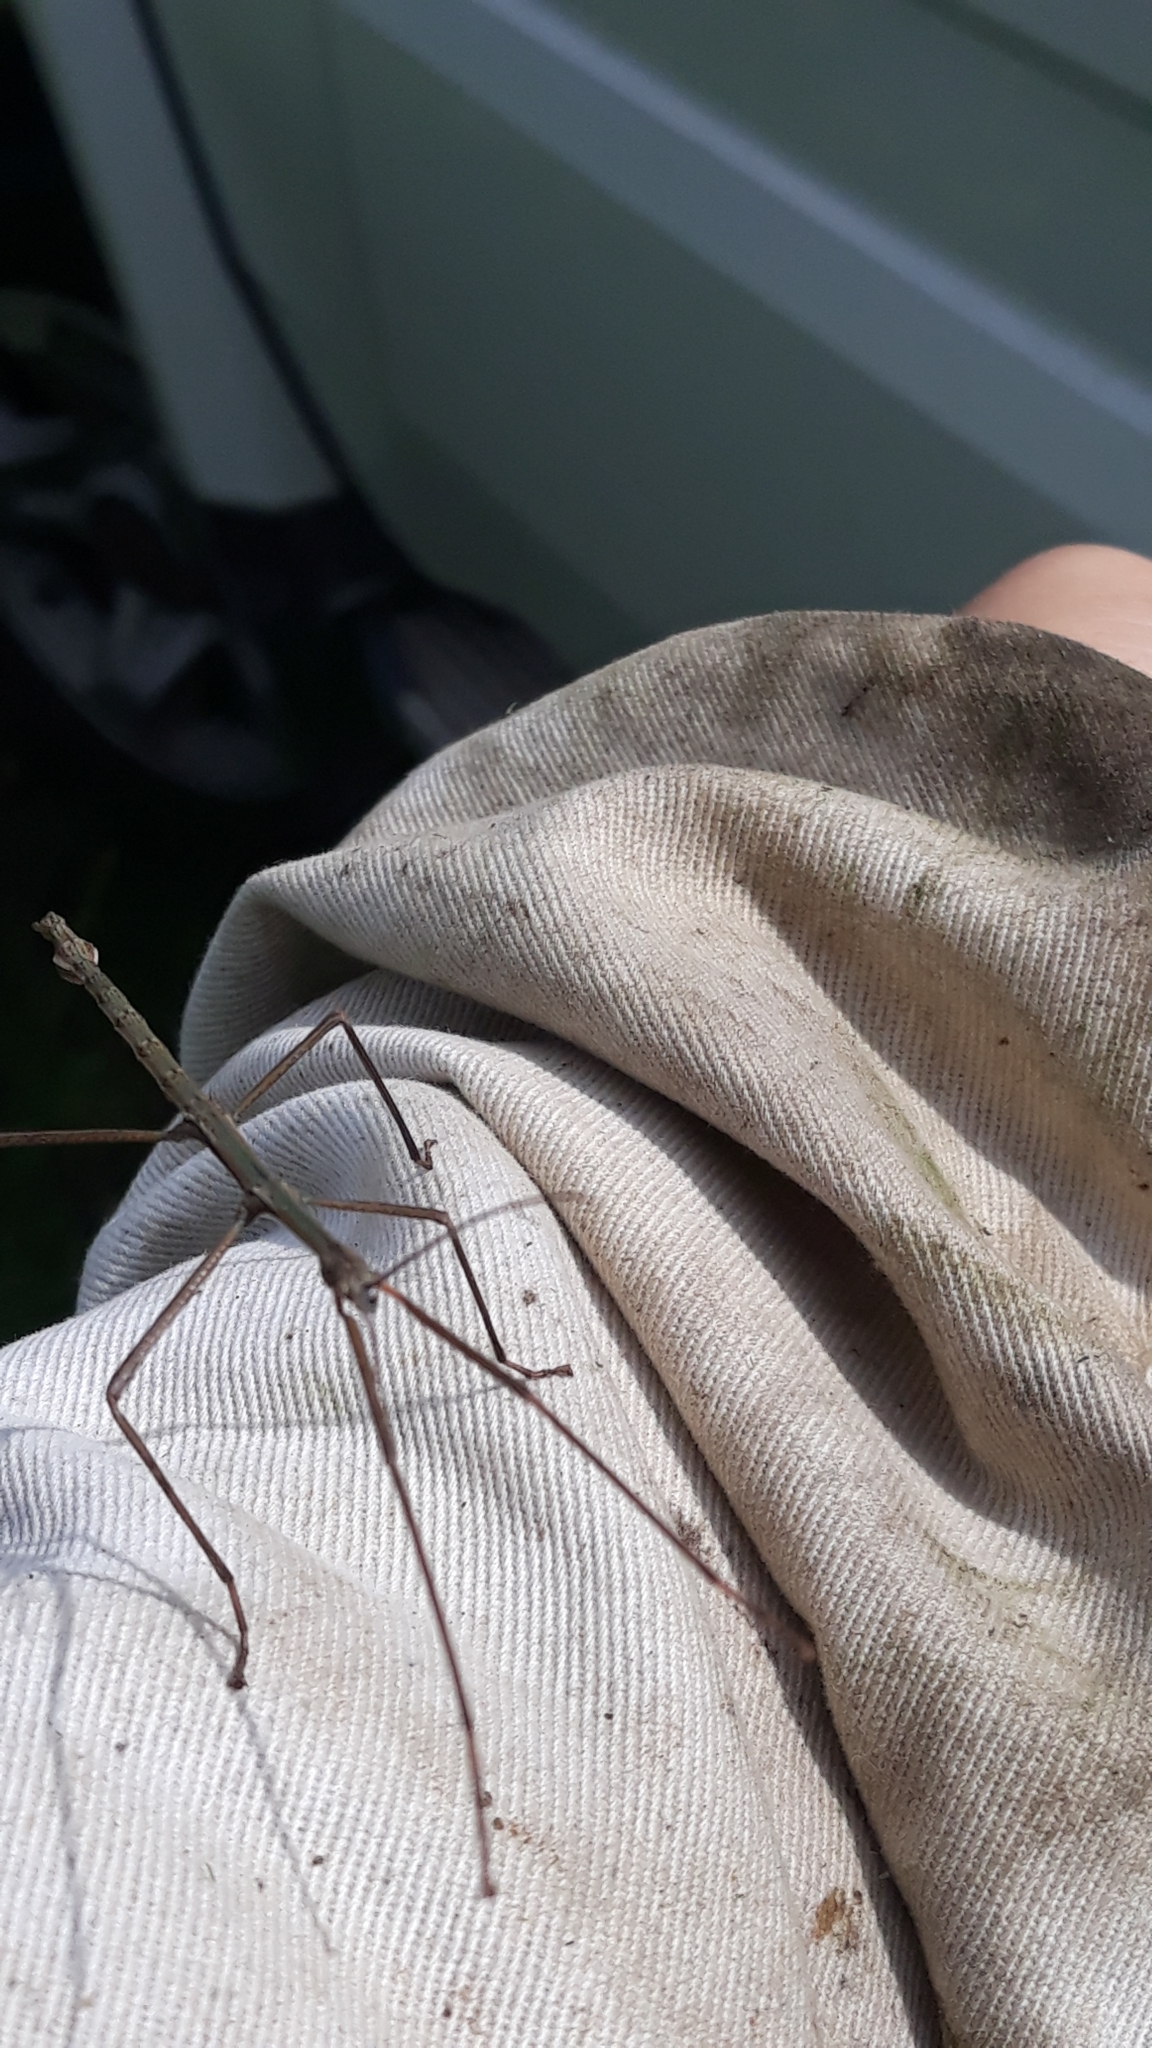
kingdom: Animalia
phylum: Arthropoda
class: Insecta
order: Phasmida
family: Phasmatidae
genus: Clitarchus
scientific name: Clitarchus hookeri
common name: Smooth stick insect
